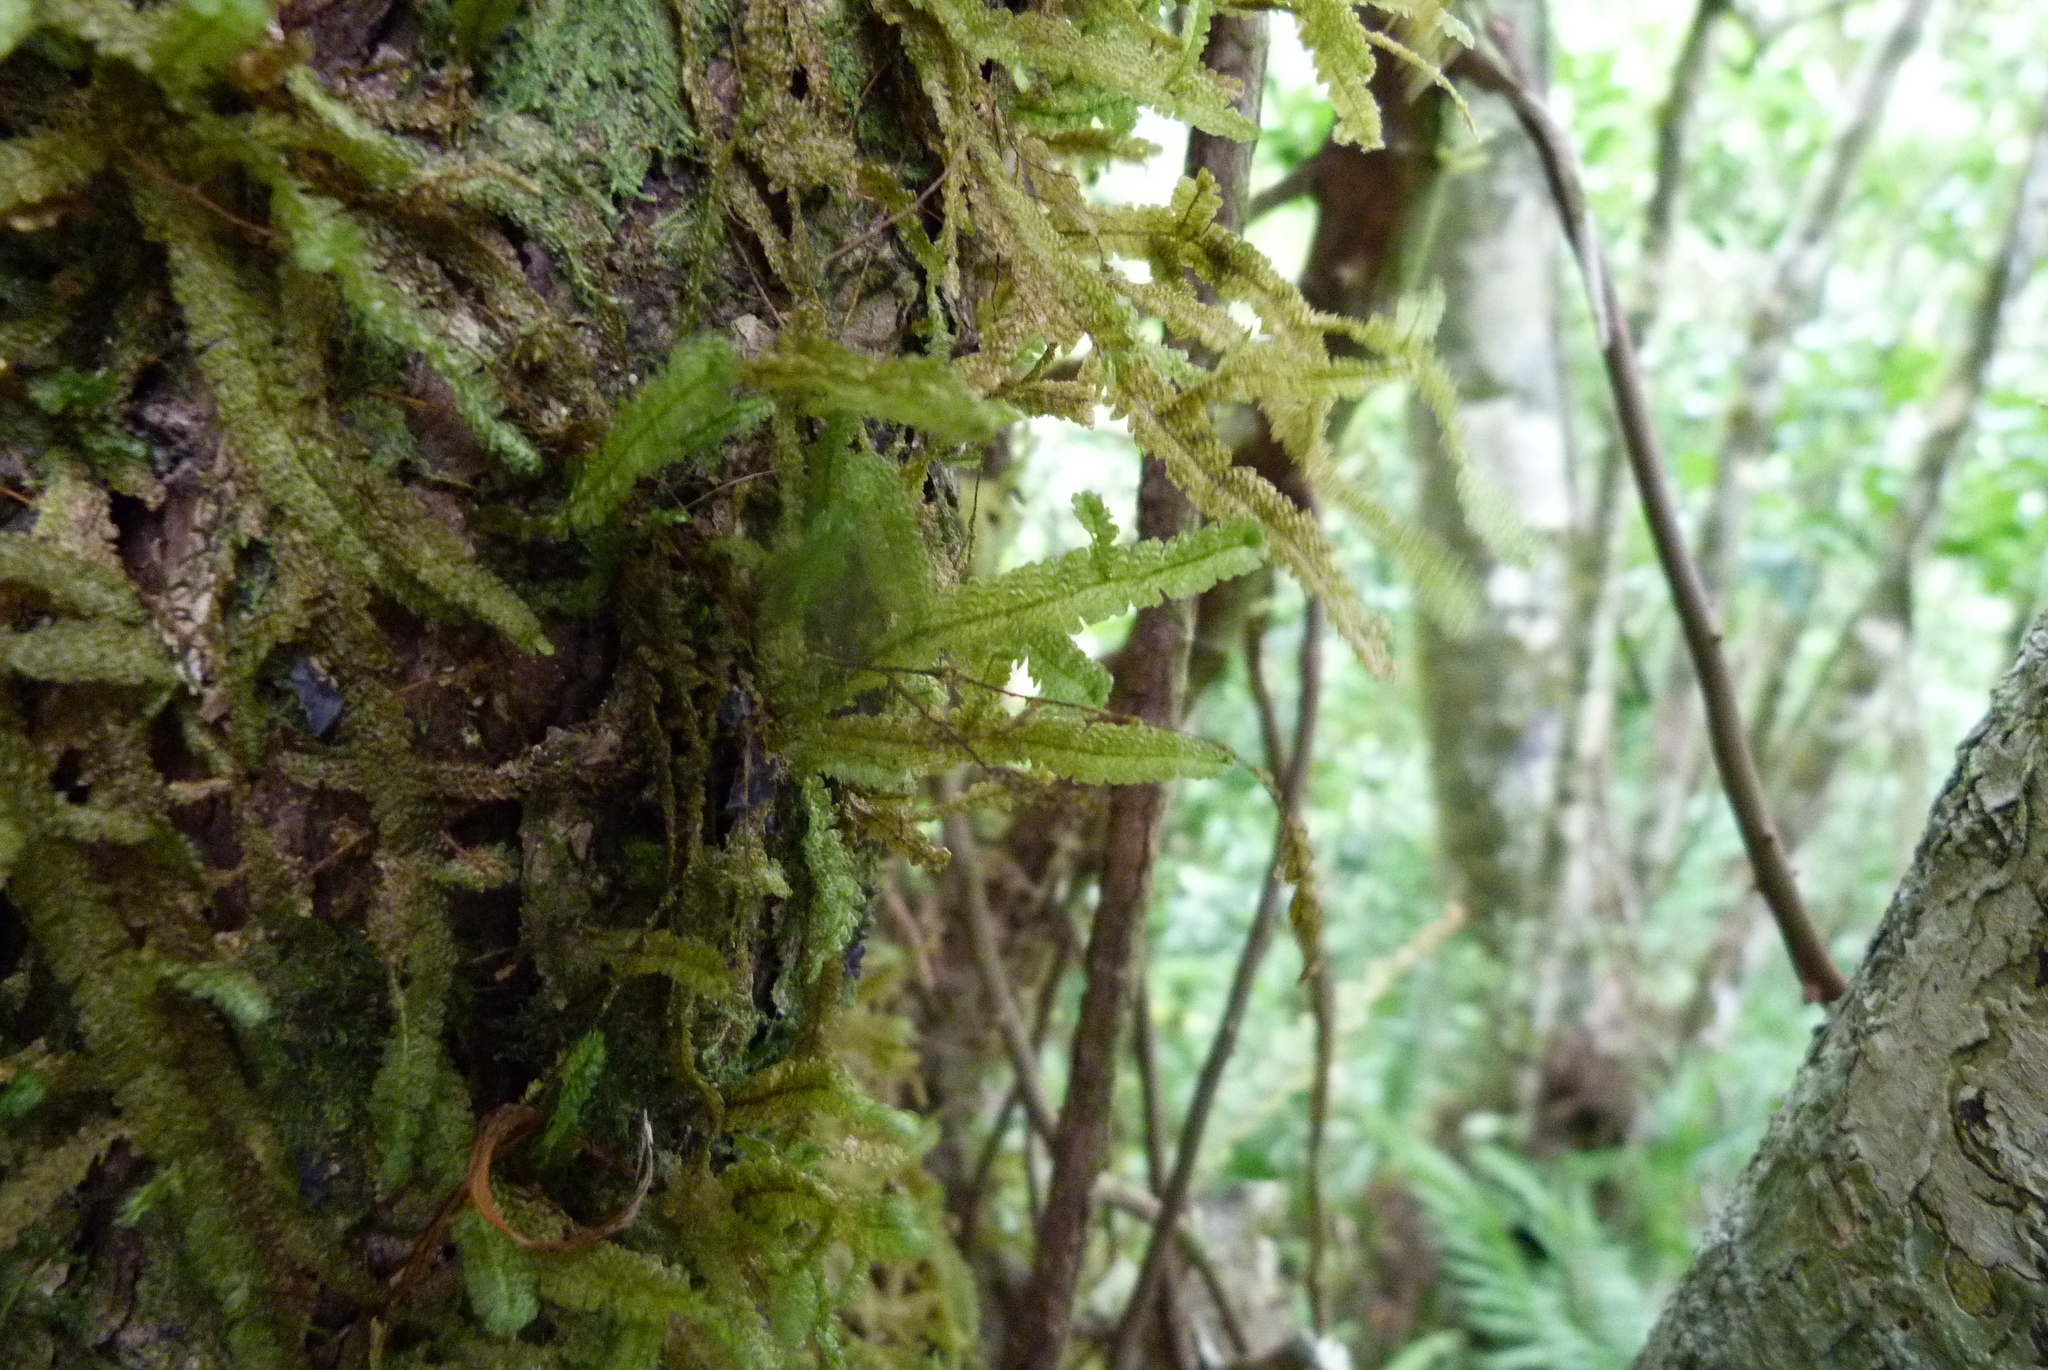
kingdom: Plantae
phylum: Bryophyta
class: Bryopsida
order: Hypnales
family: Neckeraceae
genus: Neckeromnion
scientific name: Neckeromnion lepineanum
